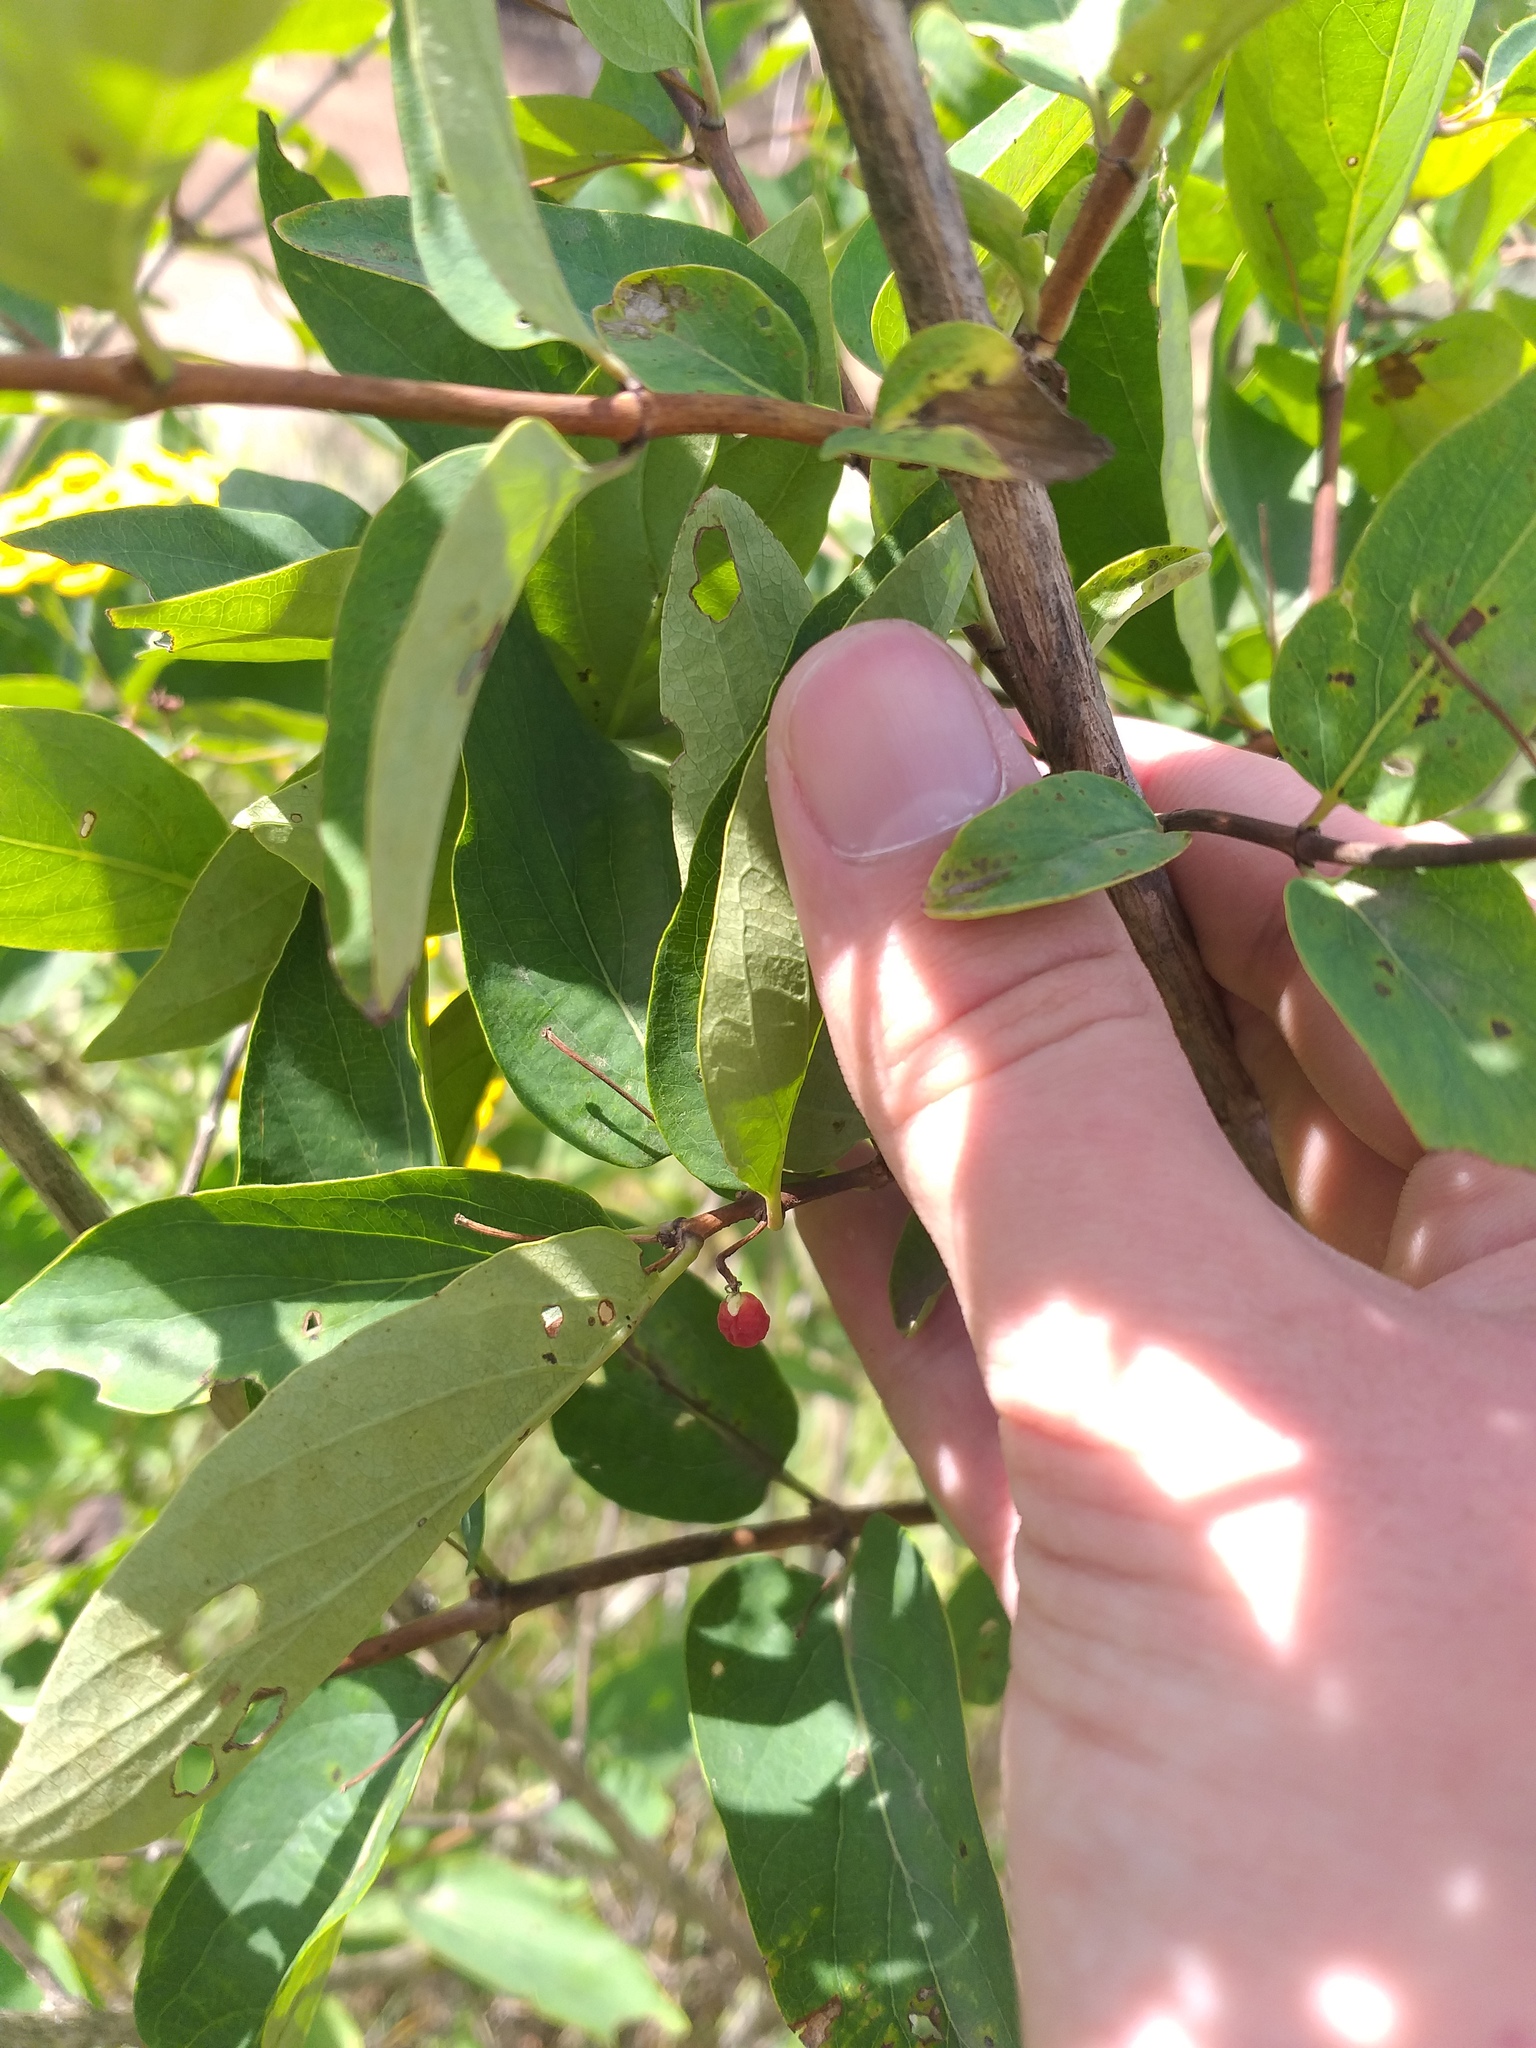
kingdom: Plantae
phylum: Tracheophyta
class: Magnoliopsida
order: Dipsacales
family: Caprifoliaceae
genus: Lonicera
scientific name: Lonicera tatarica
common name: Tatarian honeysuckle
